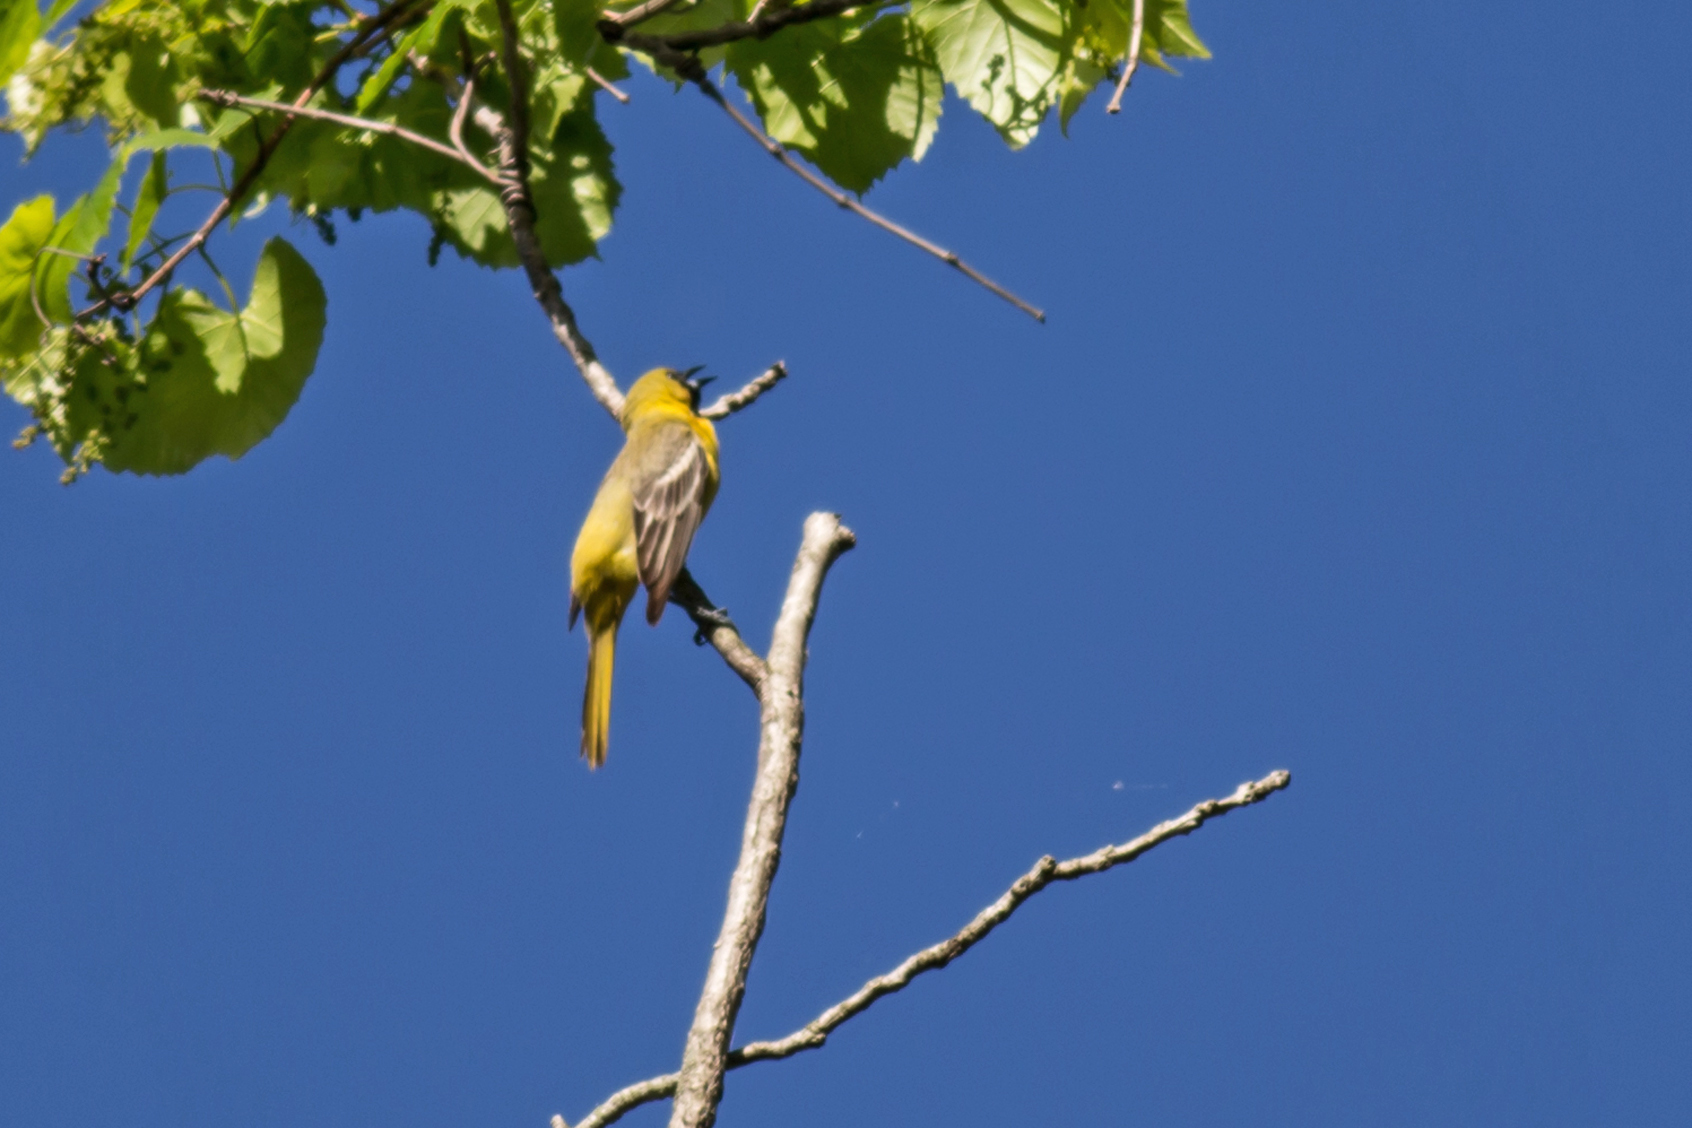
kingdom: Animalia
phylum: Chordata
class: Aves
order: Passeriformes
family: Icteridae
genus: Icterus
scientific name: Icterus spurius
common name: Orchard oriole
